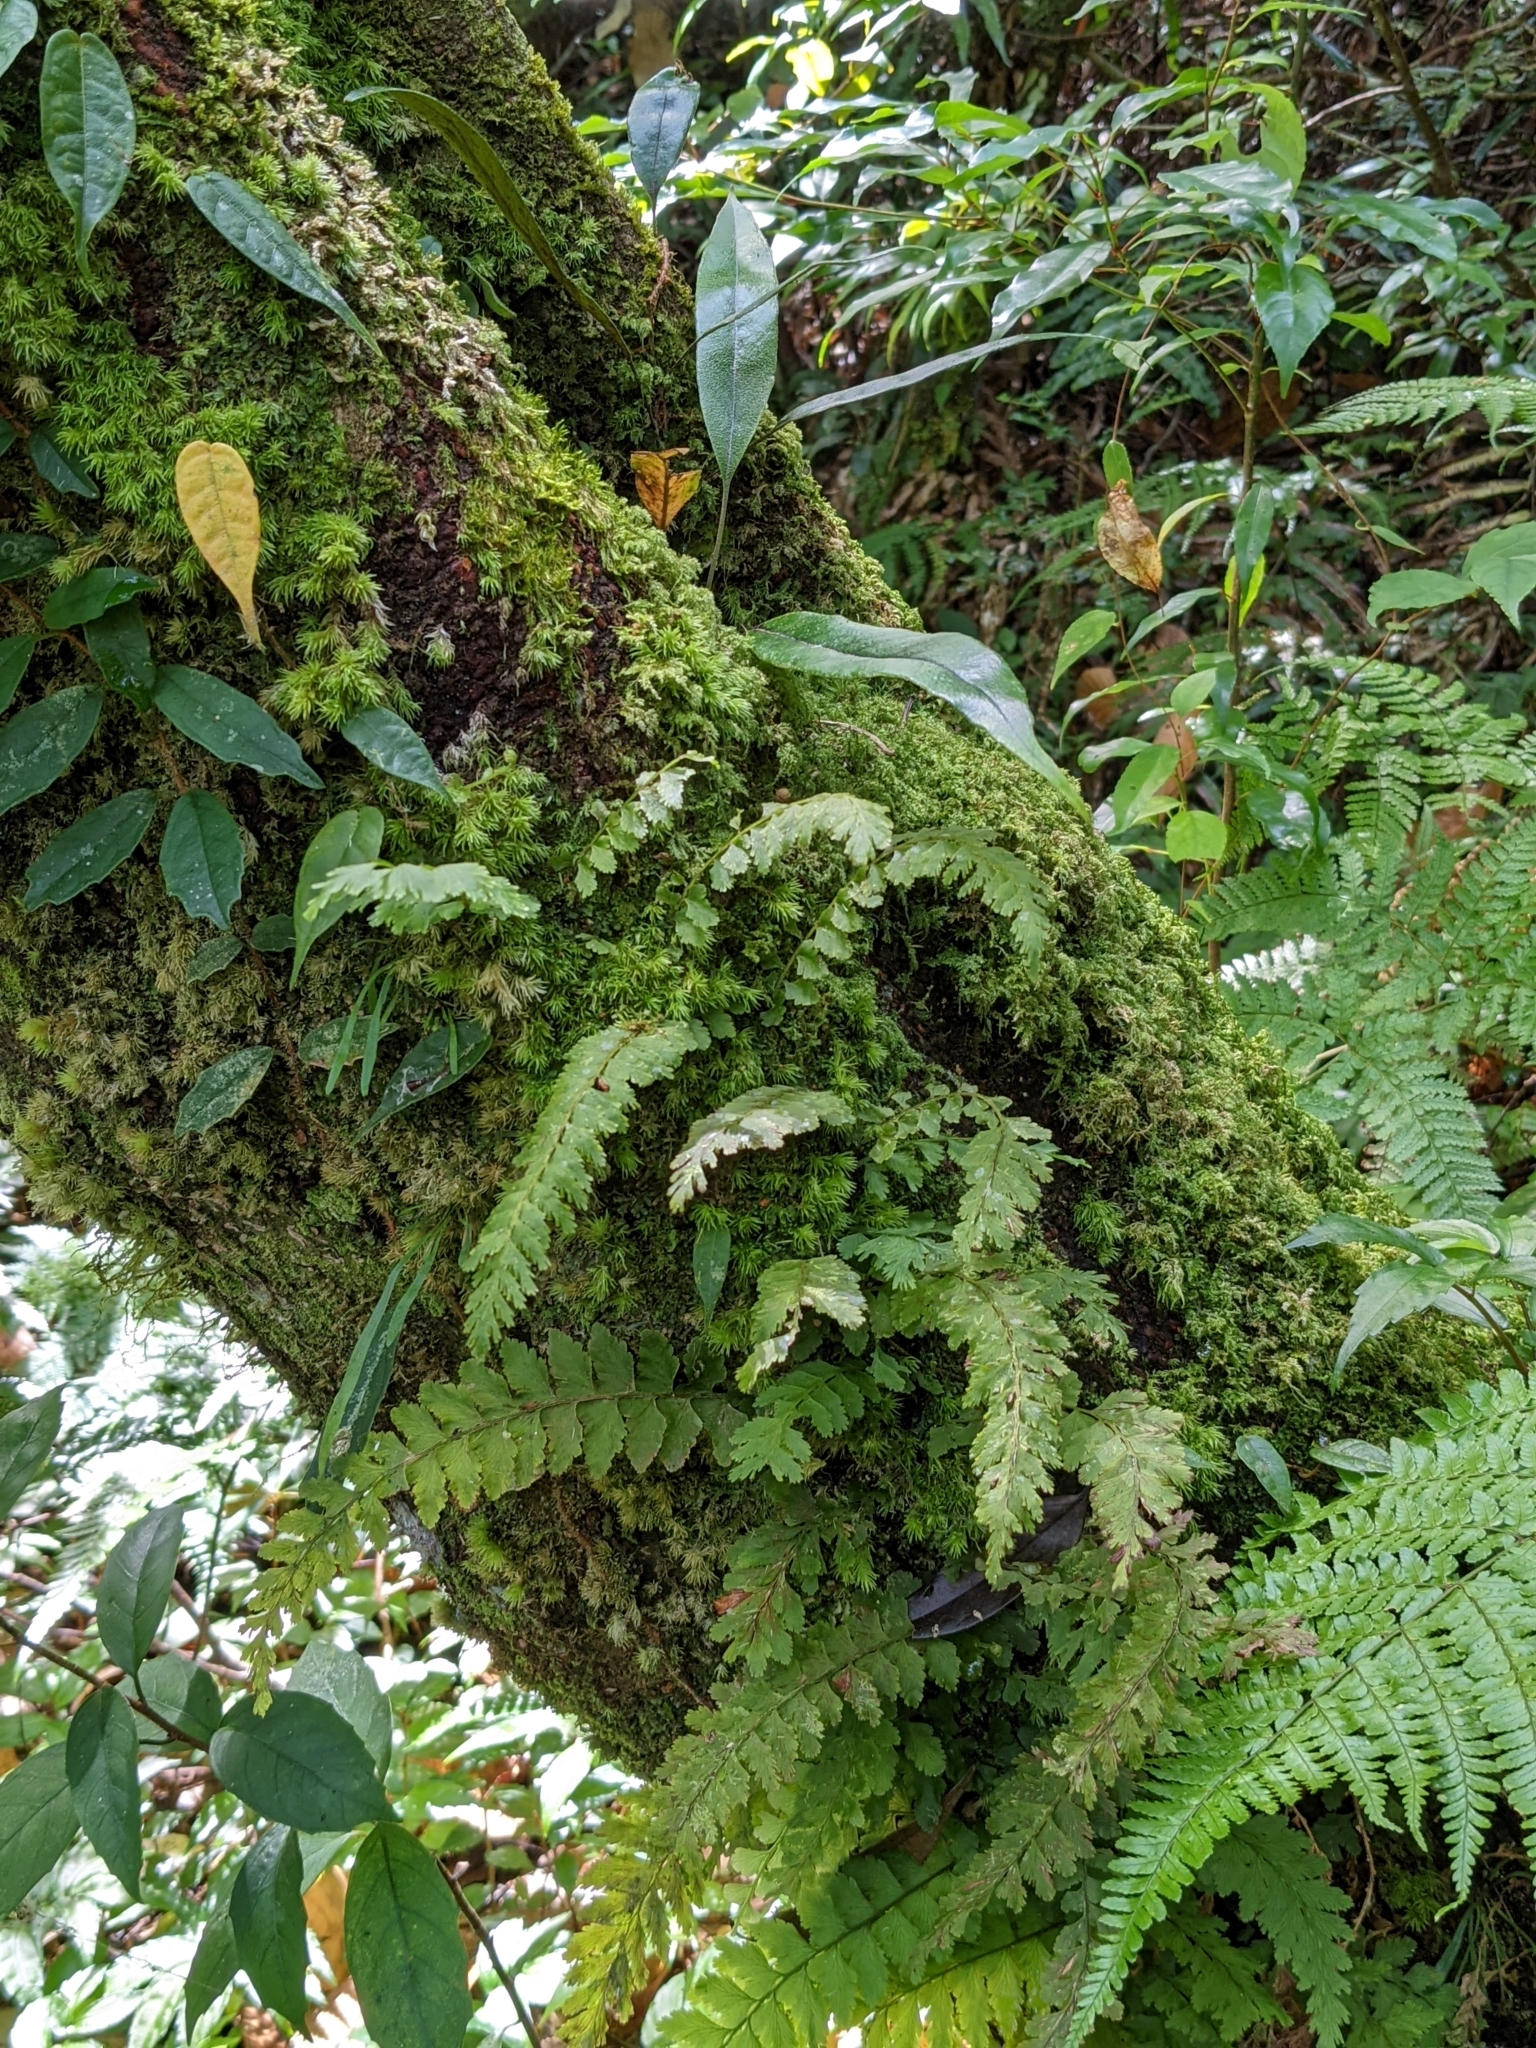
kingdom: Plantae
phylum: Tracheophyta
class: Polypodiopsida
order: Hymenophyllales
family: Hymenophyllaceae
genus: Vandenboschia
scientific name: Vandenboschia auriculata
